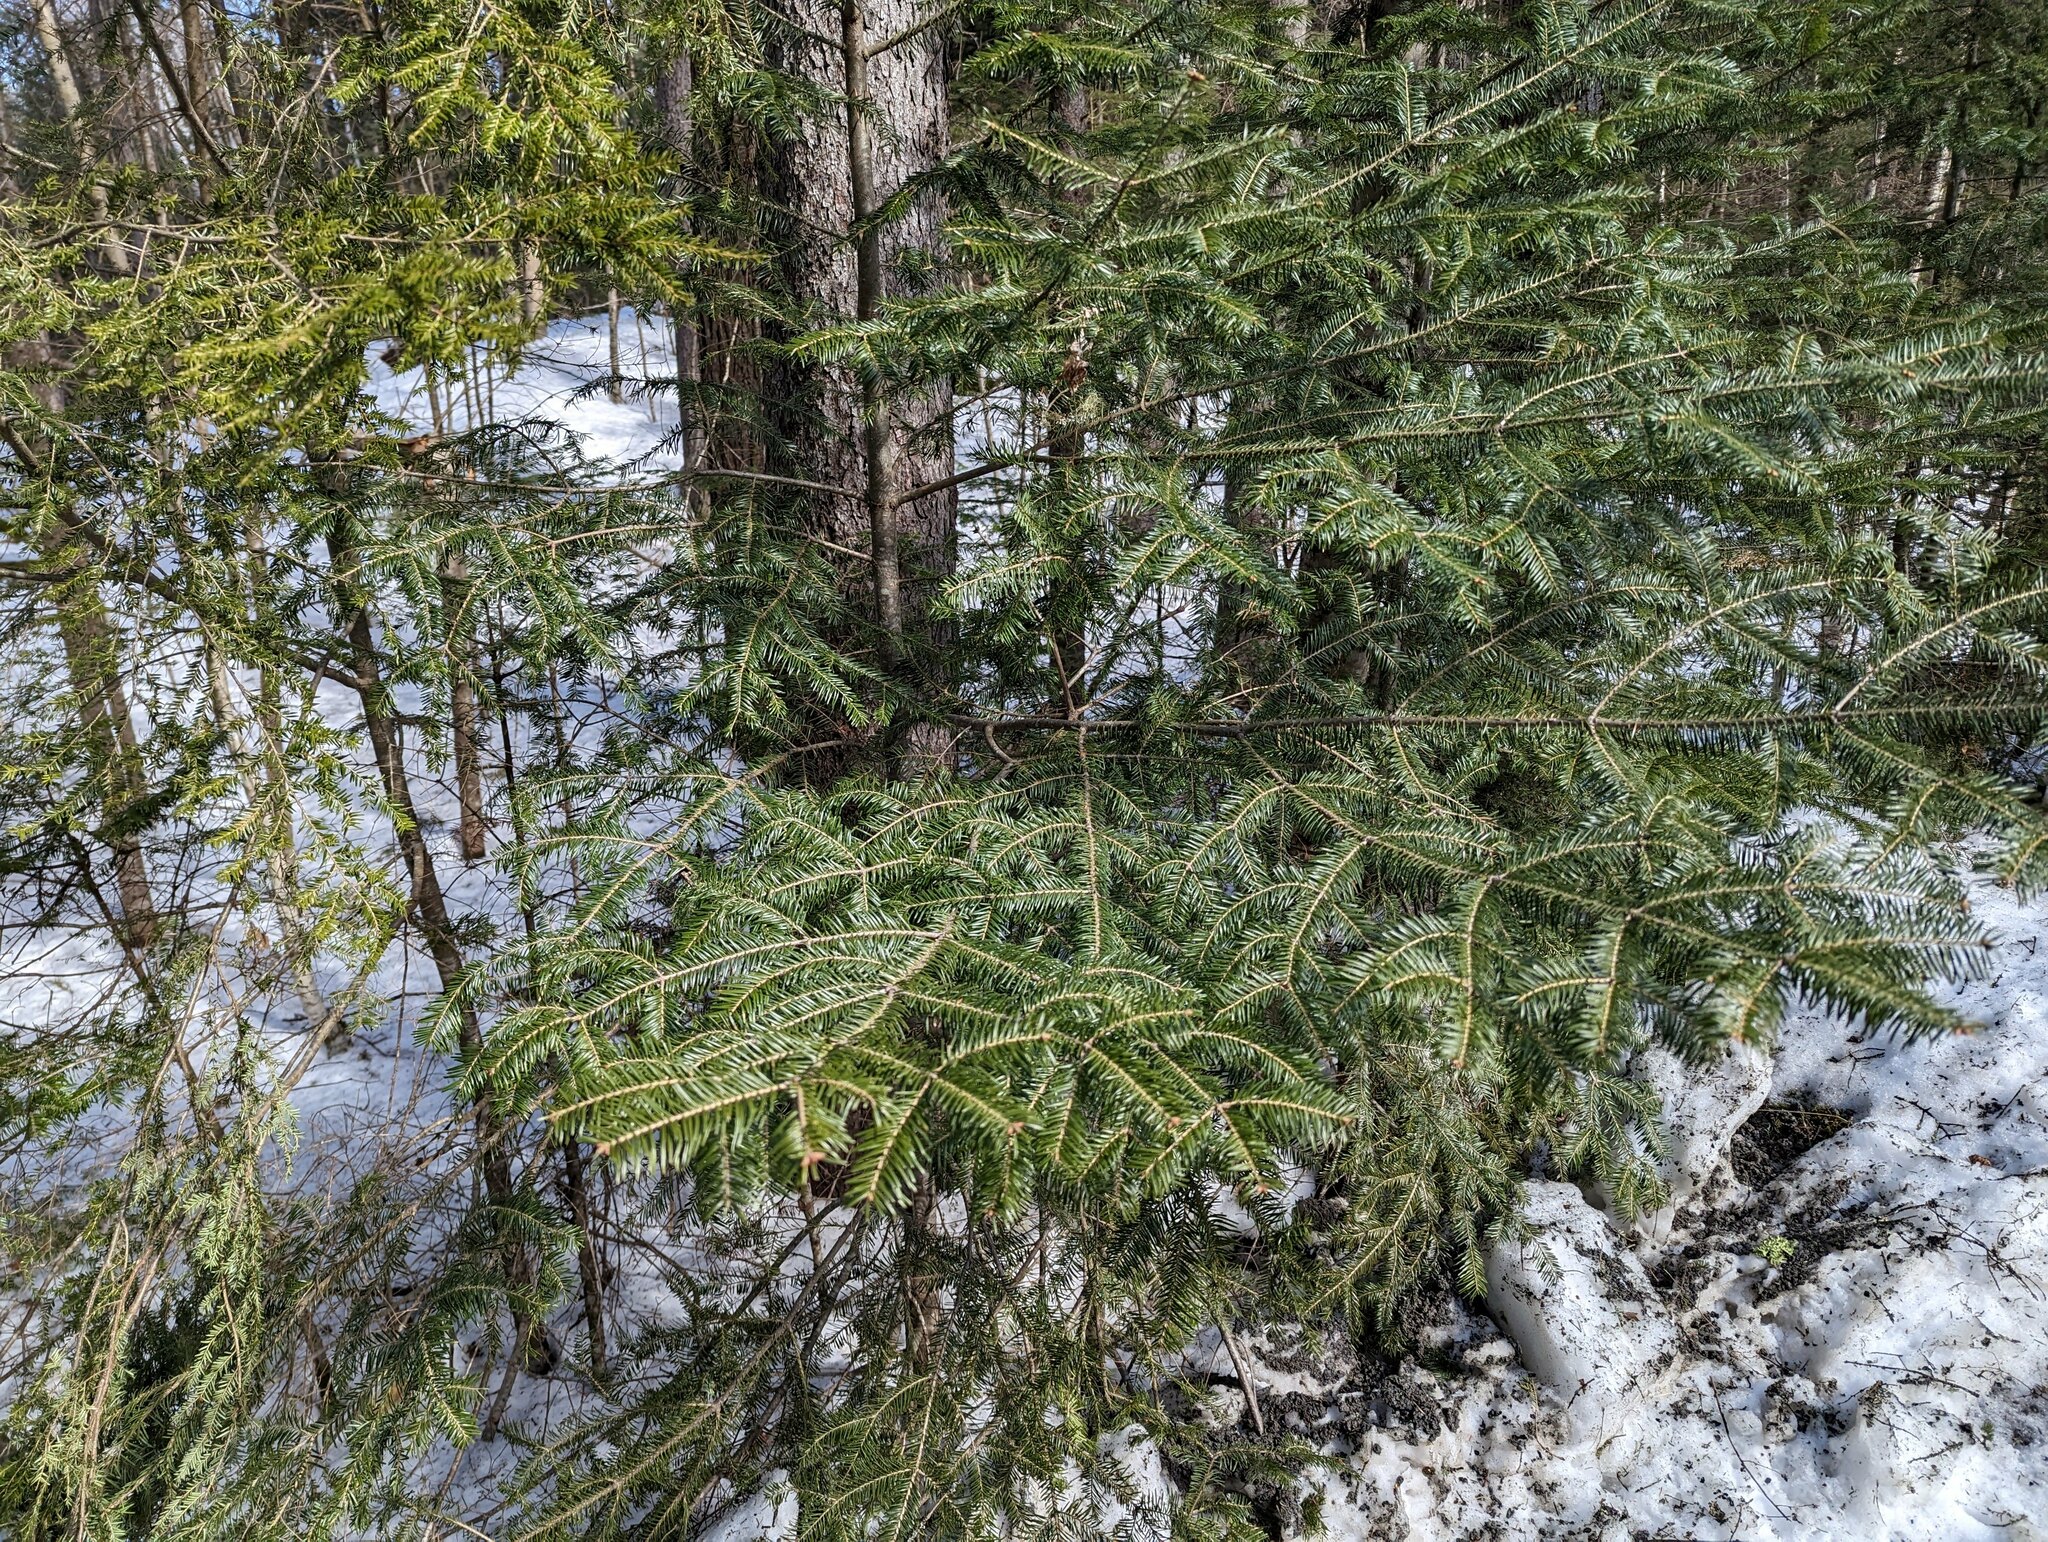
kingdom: Plantae
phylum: Tracheophyta
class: Pinopsida
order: Pinales
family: Pinaceae
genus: Abies
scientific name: Abies balsamea
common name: Balsam fir
